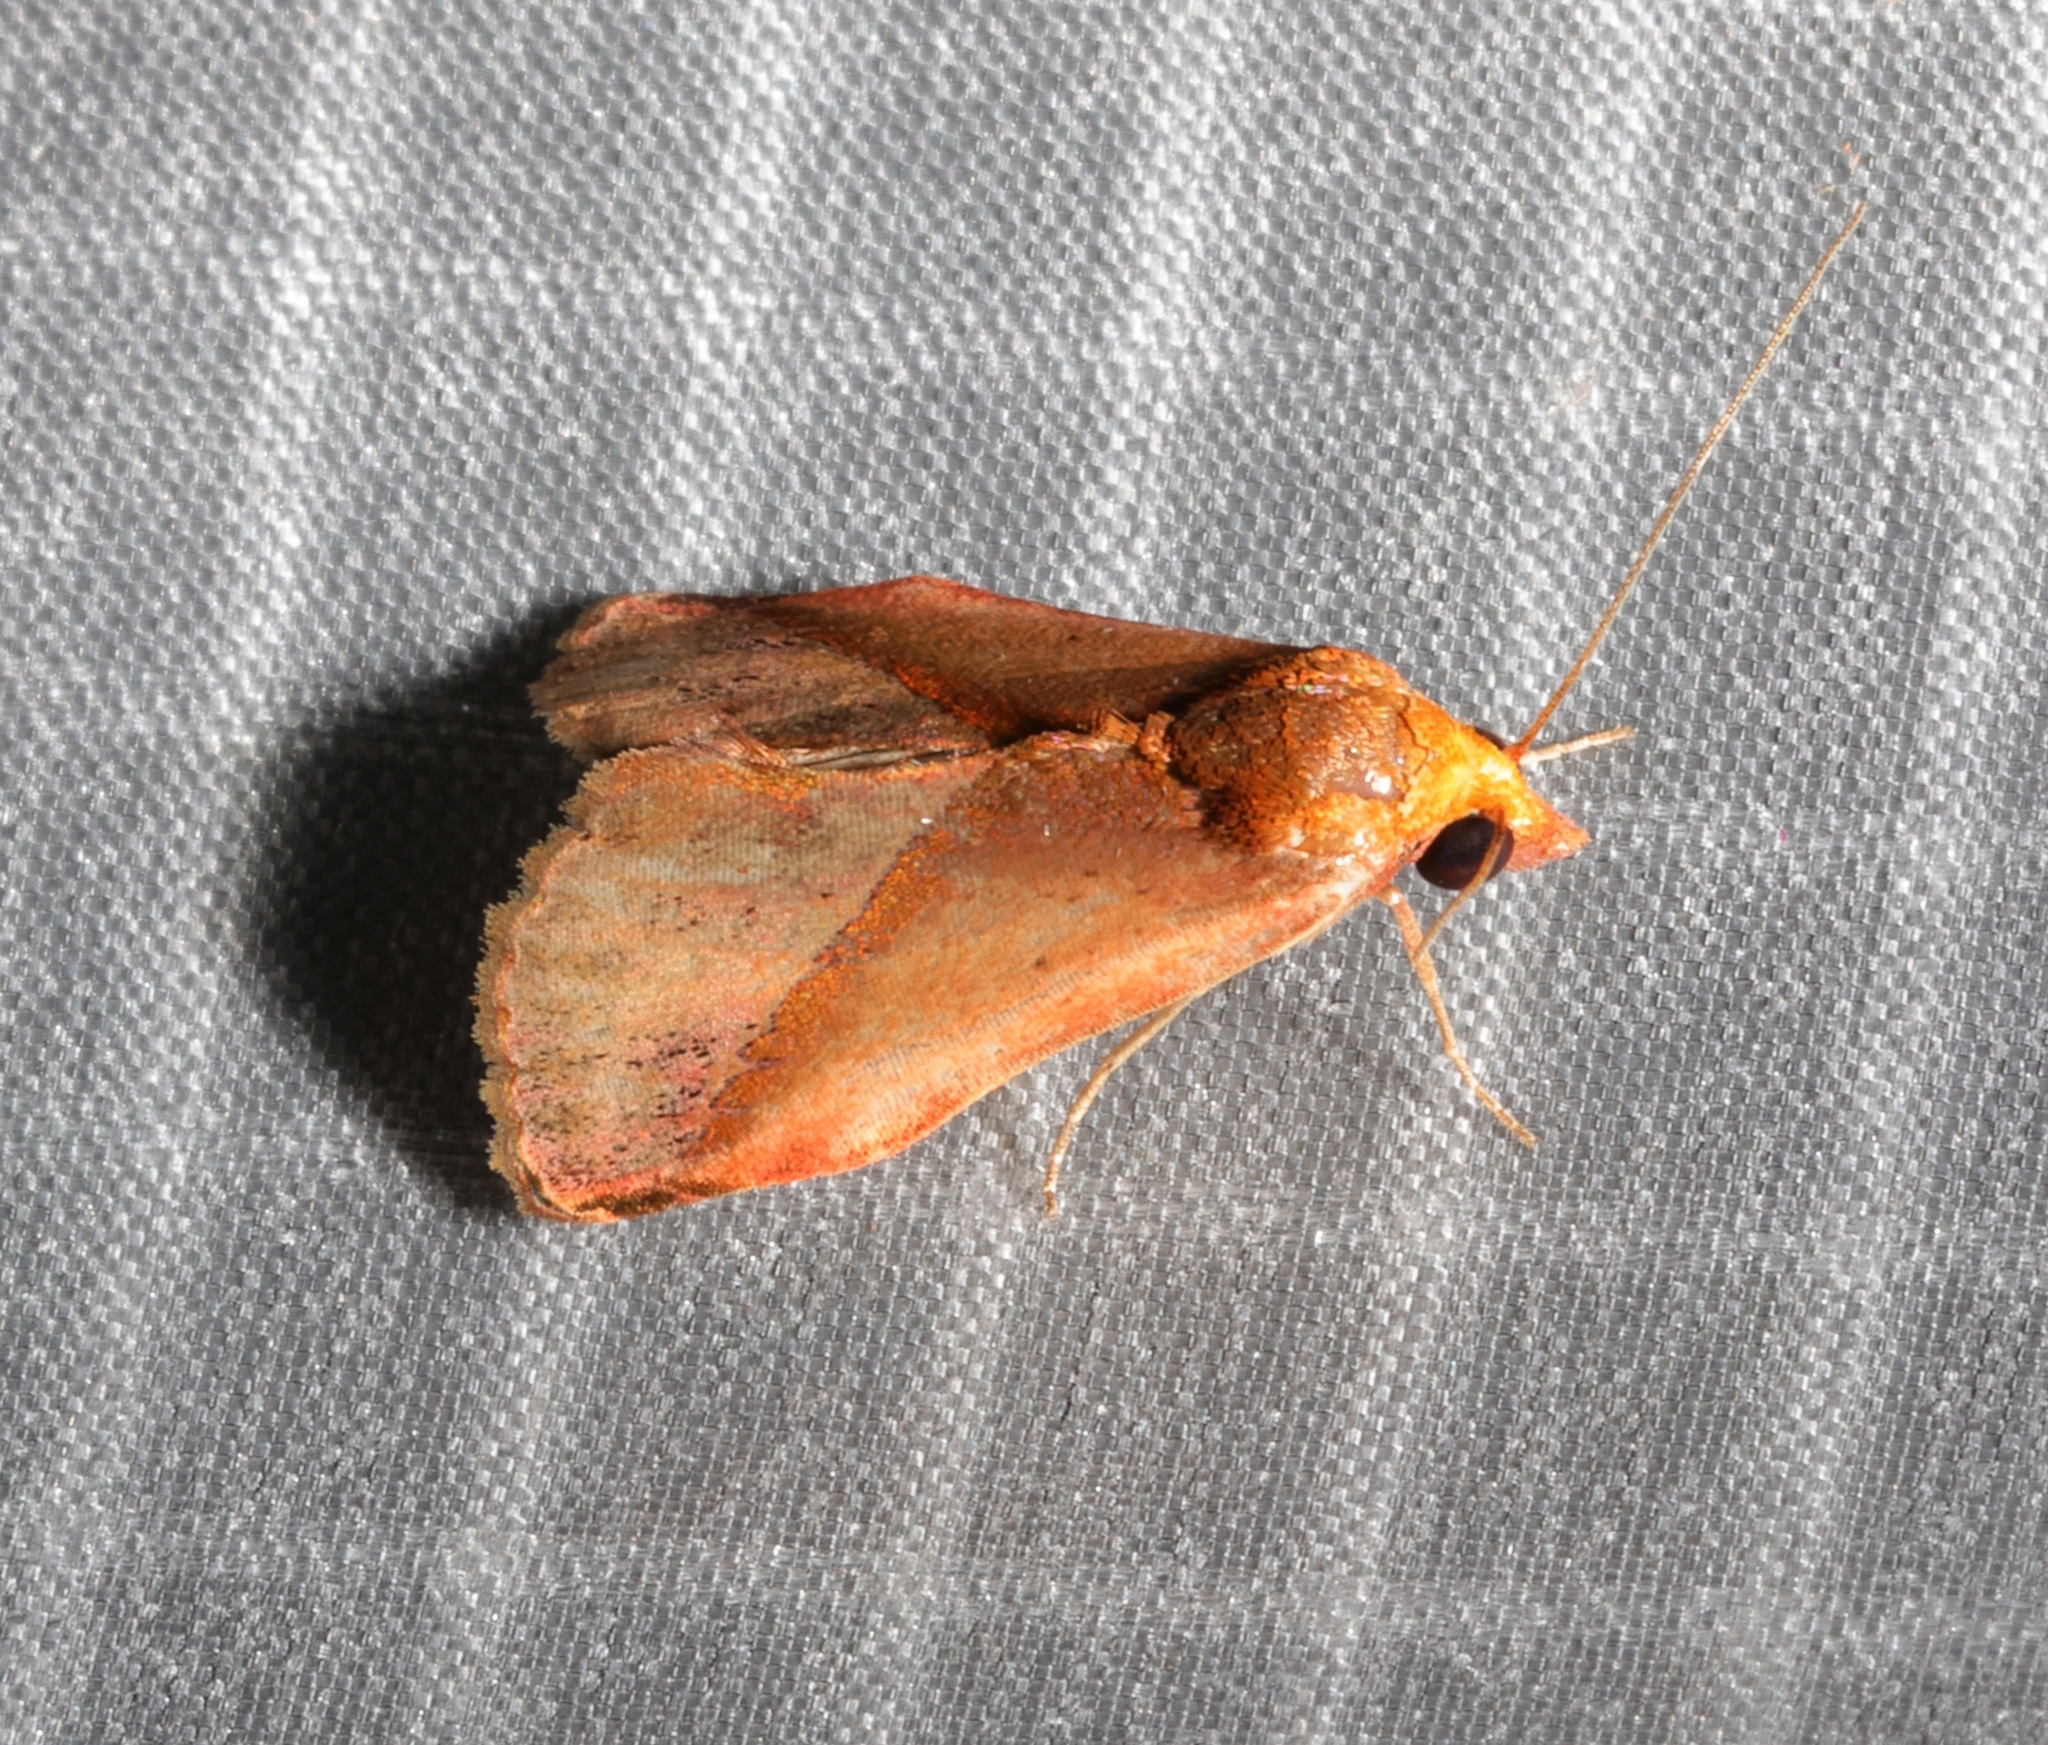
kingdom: Animalia
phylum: Arthropoda
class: Insecta
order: Lepidoptera
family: Erebidae
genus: Arsacia
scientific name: Arsacia rectalis
